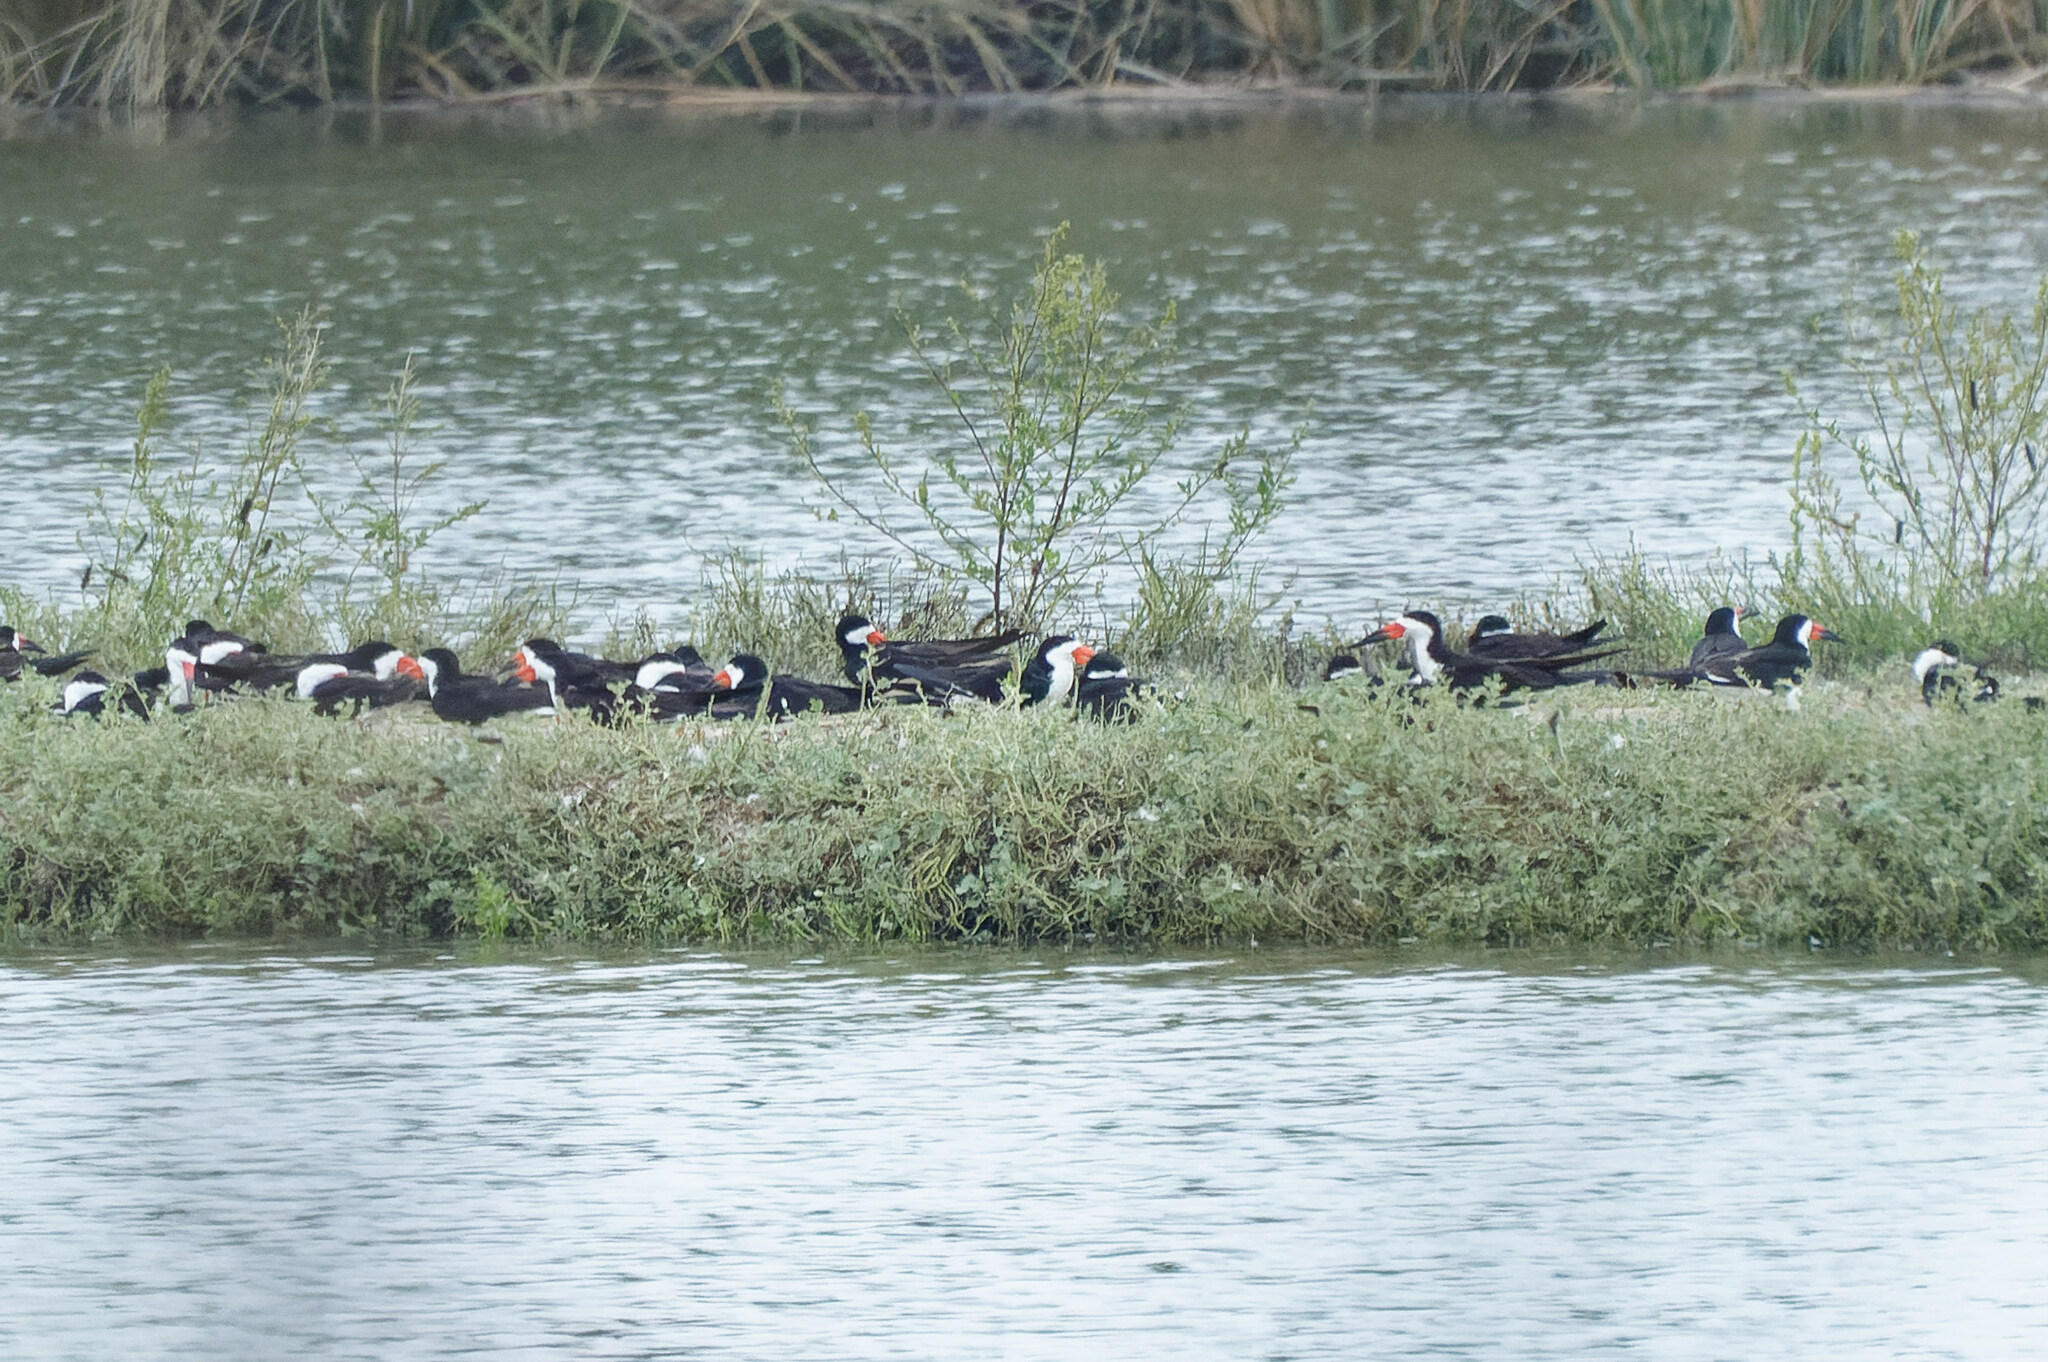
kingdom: Animalia
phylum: Chordata
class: Aves
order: Charadriiformes
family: Laridae
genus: Rynchops
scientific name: Rynchops niger
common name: Black skimmer
